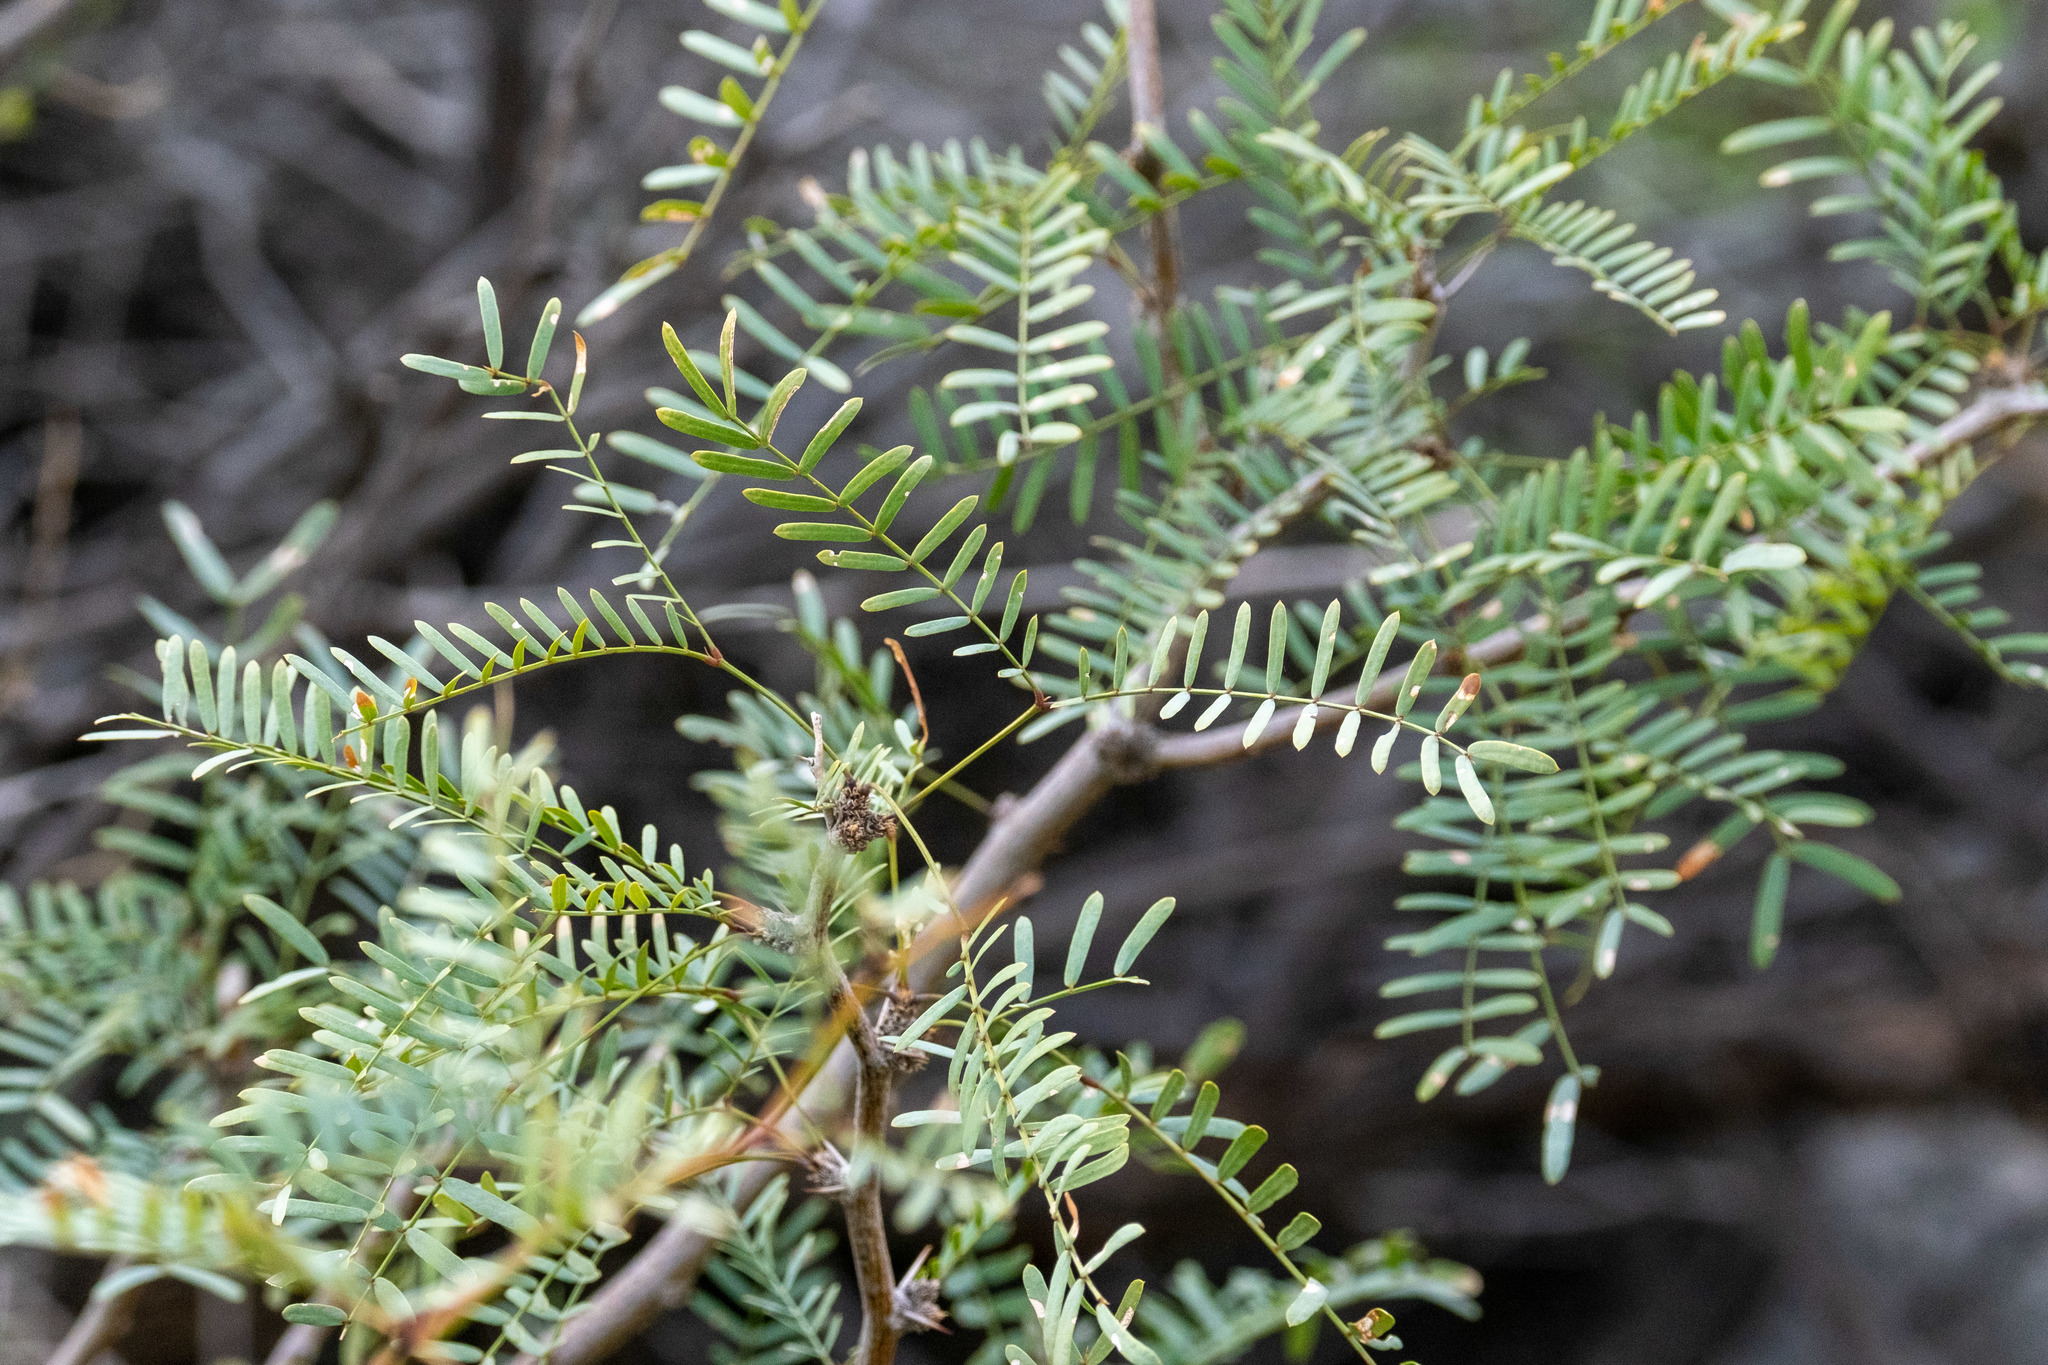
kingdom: Plantae
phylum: Tracheophyta
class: Magnoliopsida
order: Fabales
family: Fabaceae
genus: Prosopis
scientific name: Prosopis pubescens
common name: Screw-bean
